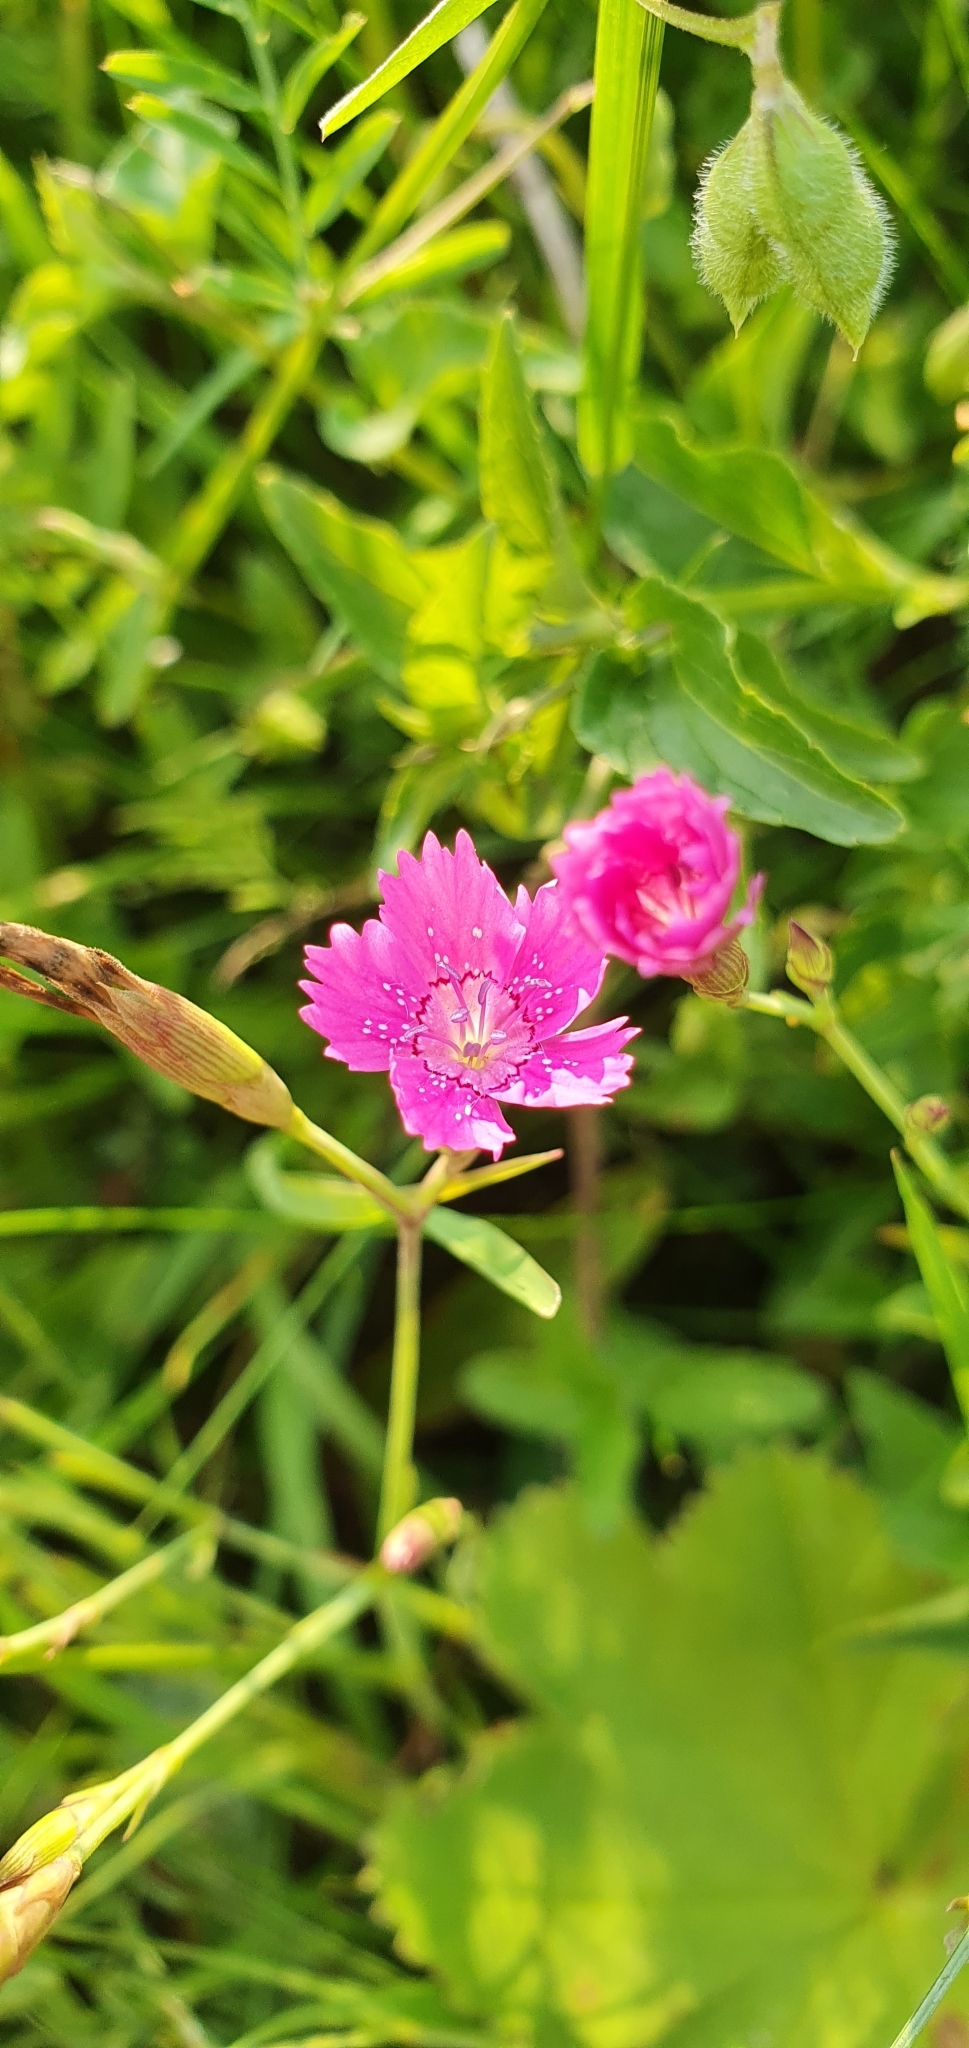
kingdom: Plantae
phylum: Tracheophyta
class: Magnoliopsida
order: Caryophyllales
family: Caryophyllaceae
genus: Dianthus
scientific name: Dianthus deltoides
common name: Maiden pink
